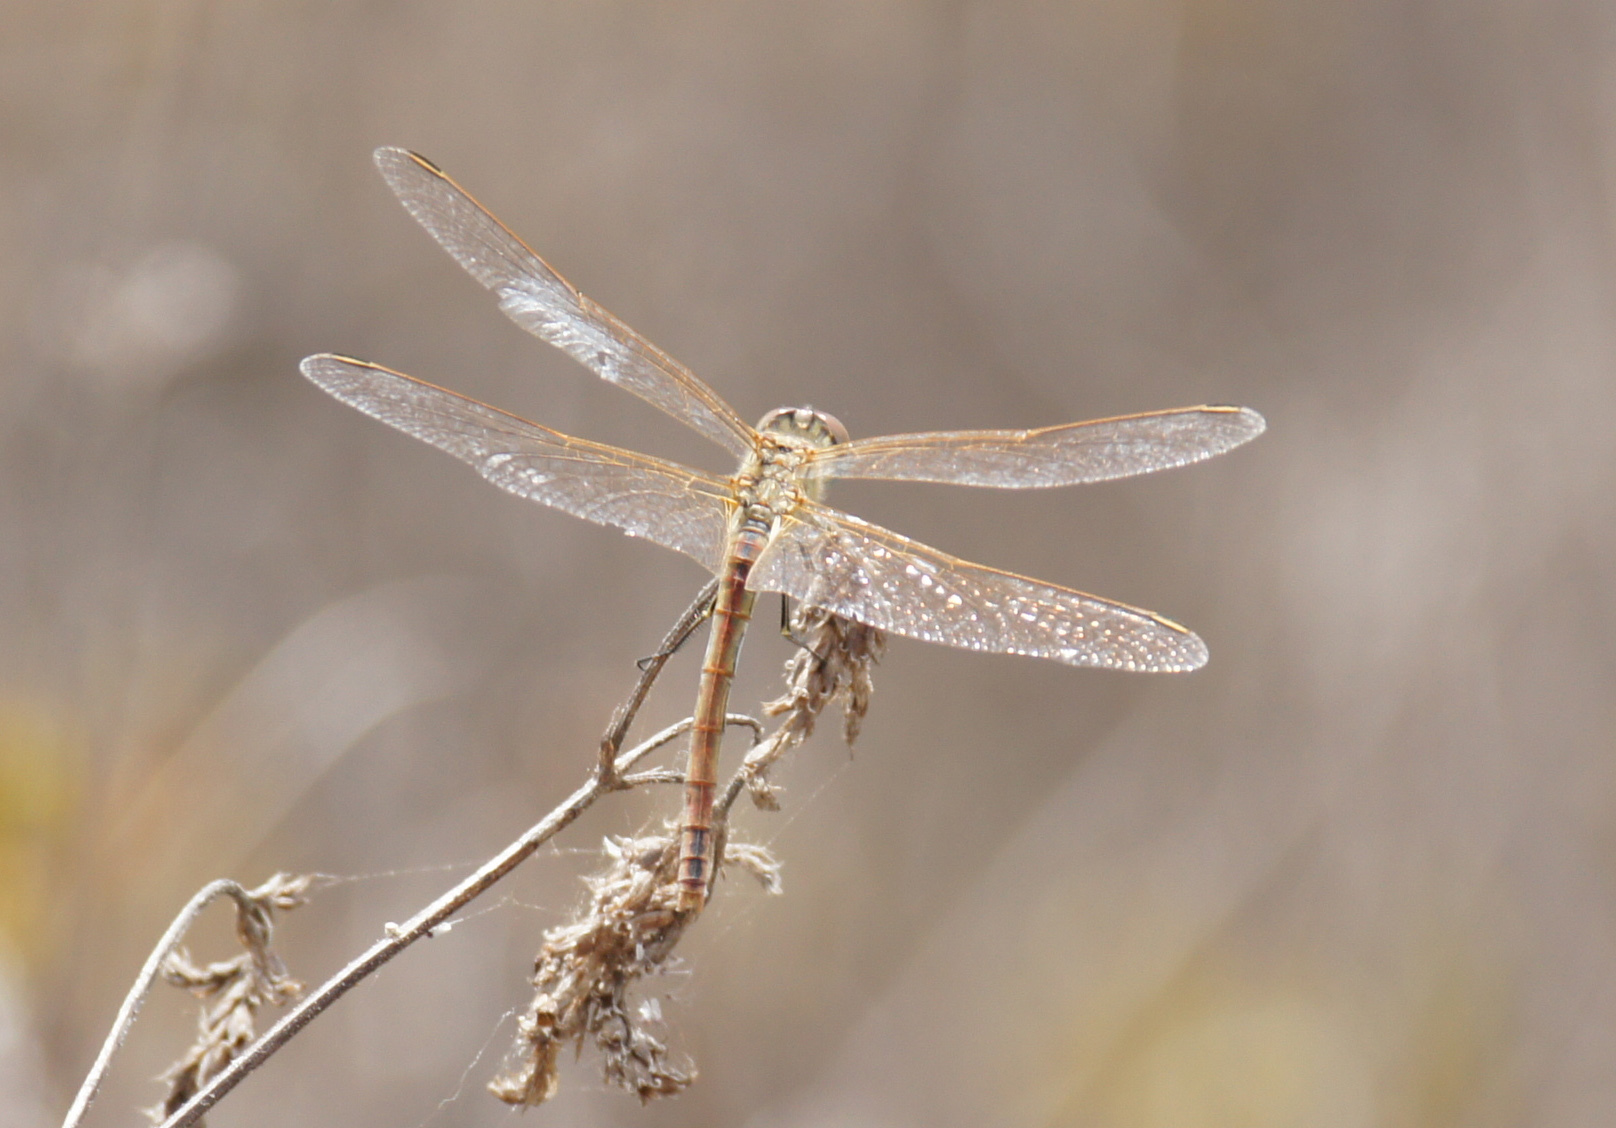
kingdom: Animalia
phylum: Arthropoda
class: Insecta
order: Odonata
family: Libellulidae
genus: Sympetrum
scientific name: Sympetrum fonscolombii
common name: Red-veined darter
